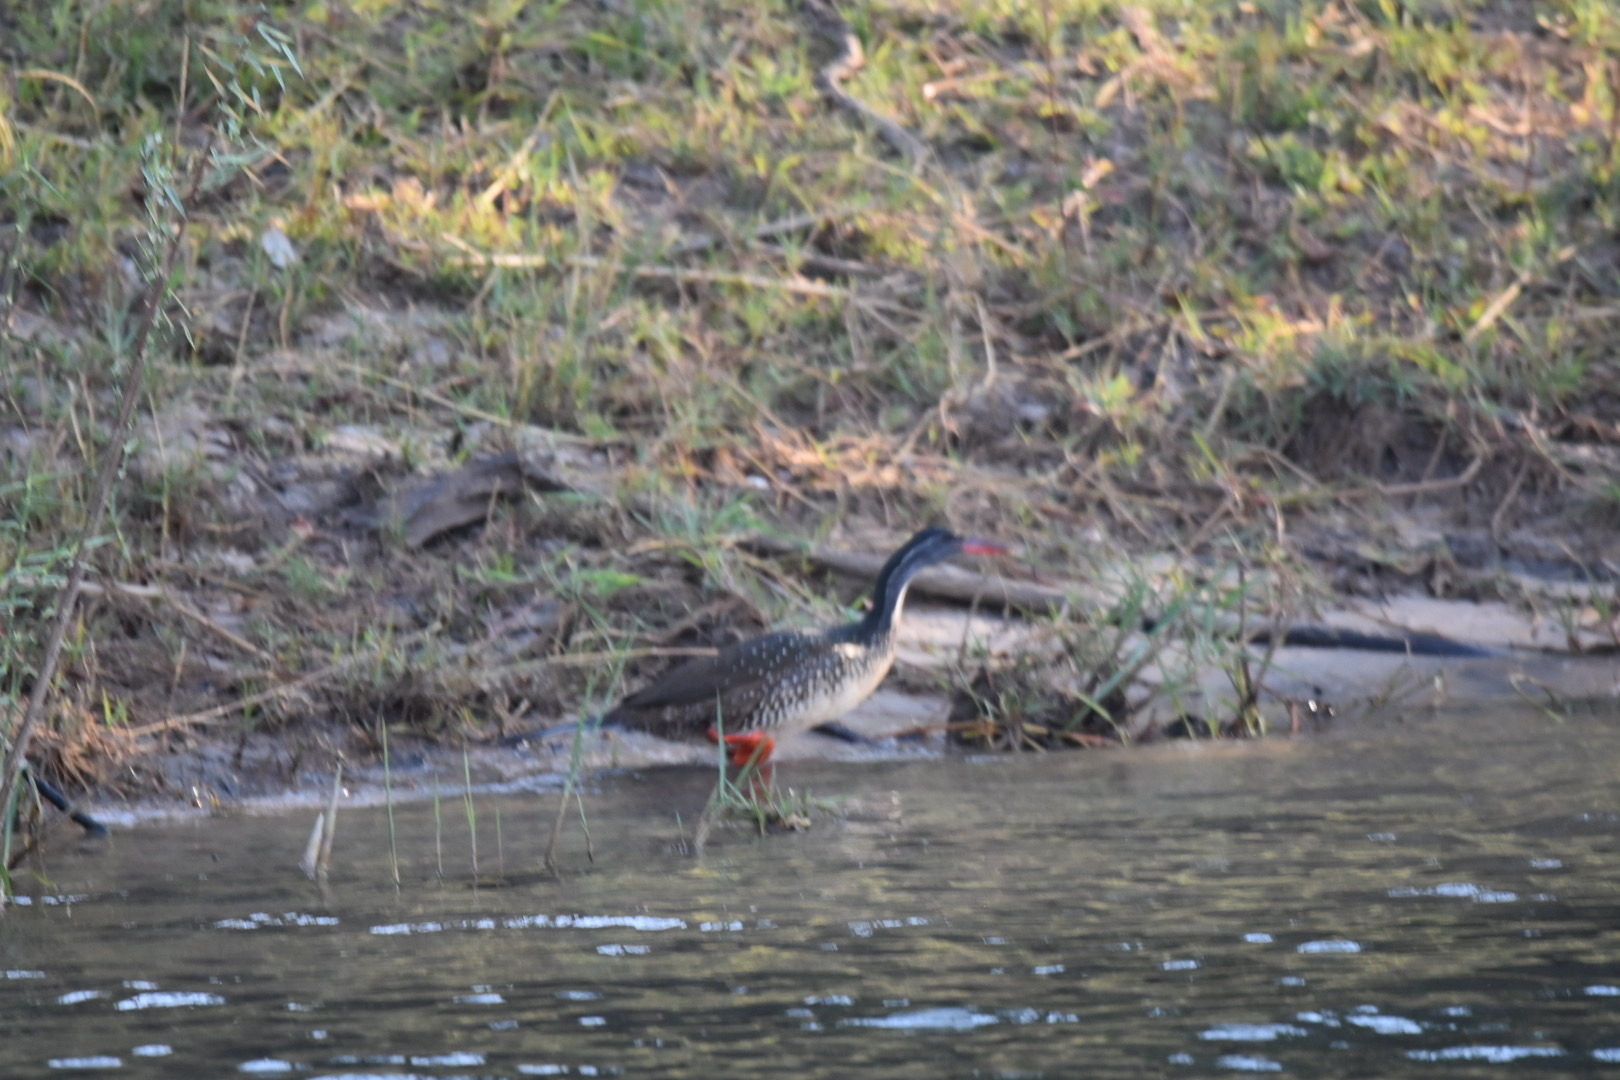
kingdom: Animalia
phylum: Chordata
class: Aves
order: Gruiformes
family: Heliornithidae
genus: Podica
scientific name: Podica senegalensis
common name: African finfoot
